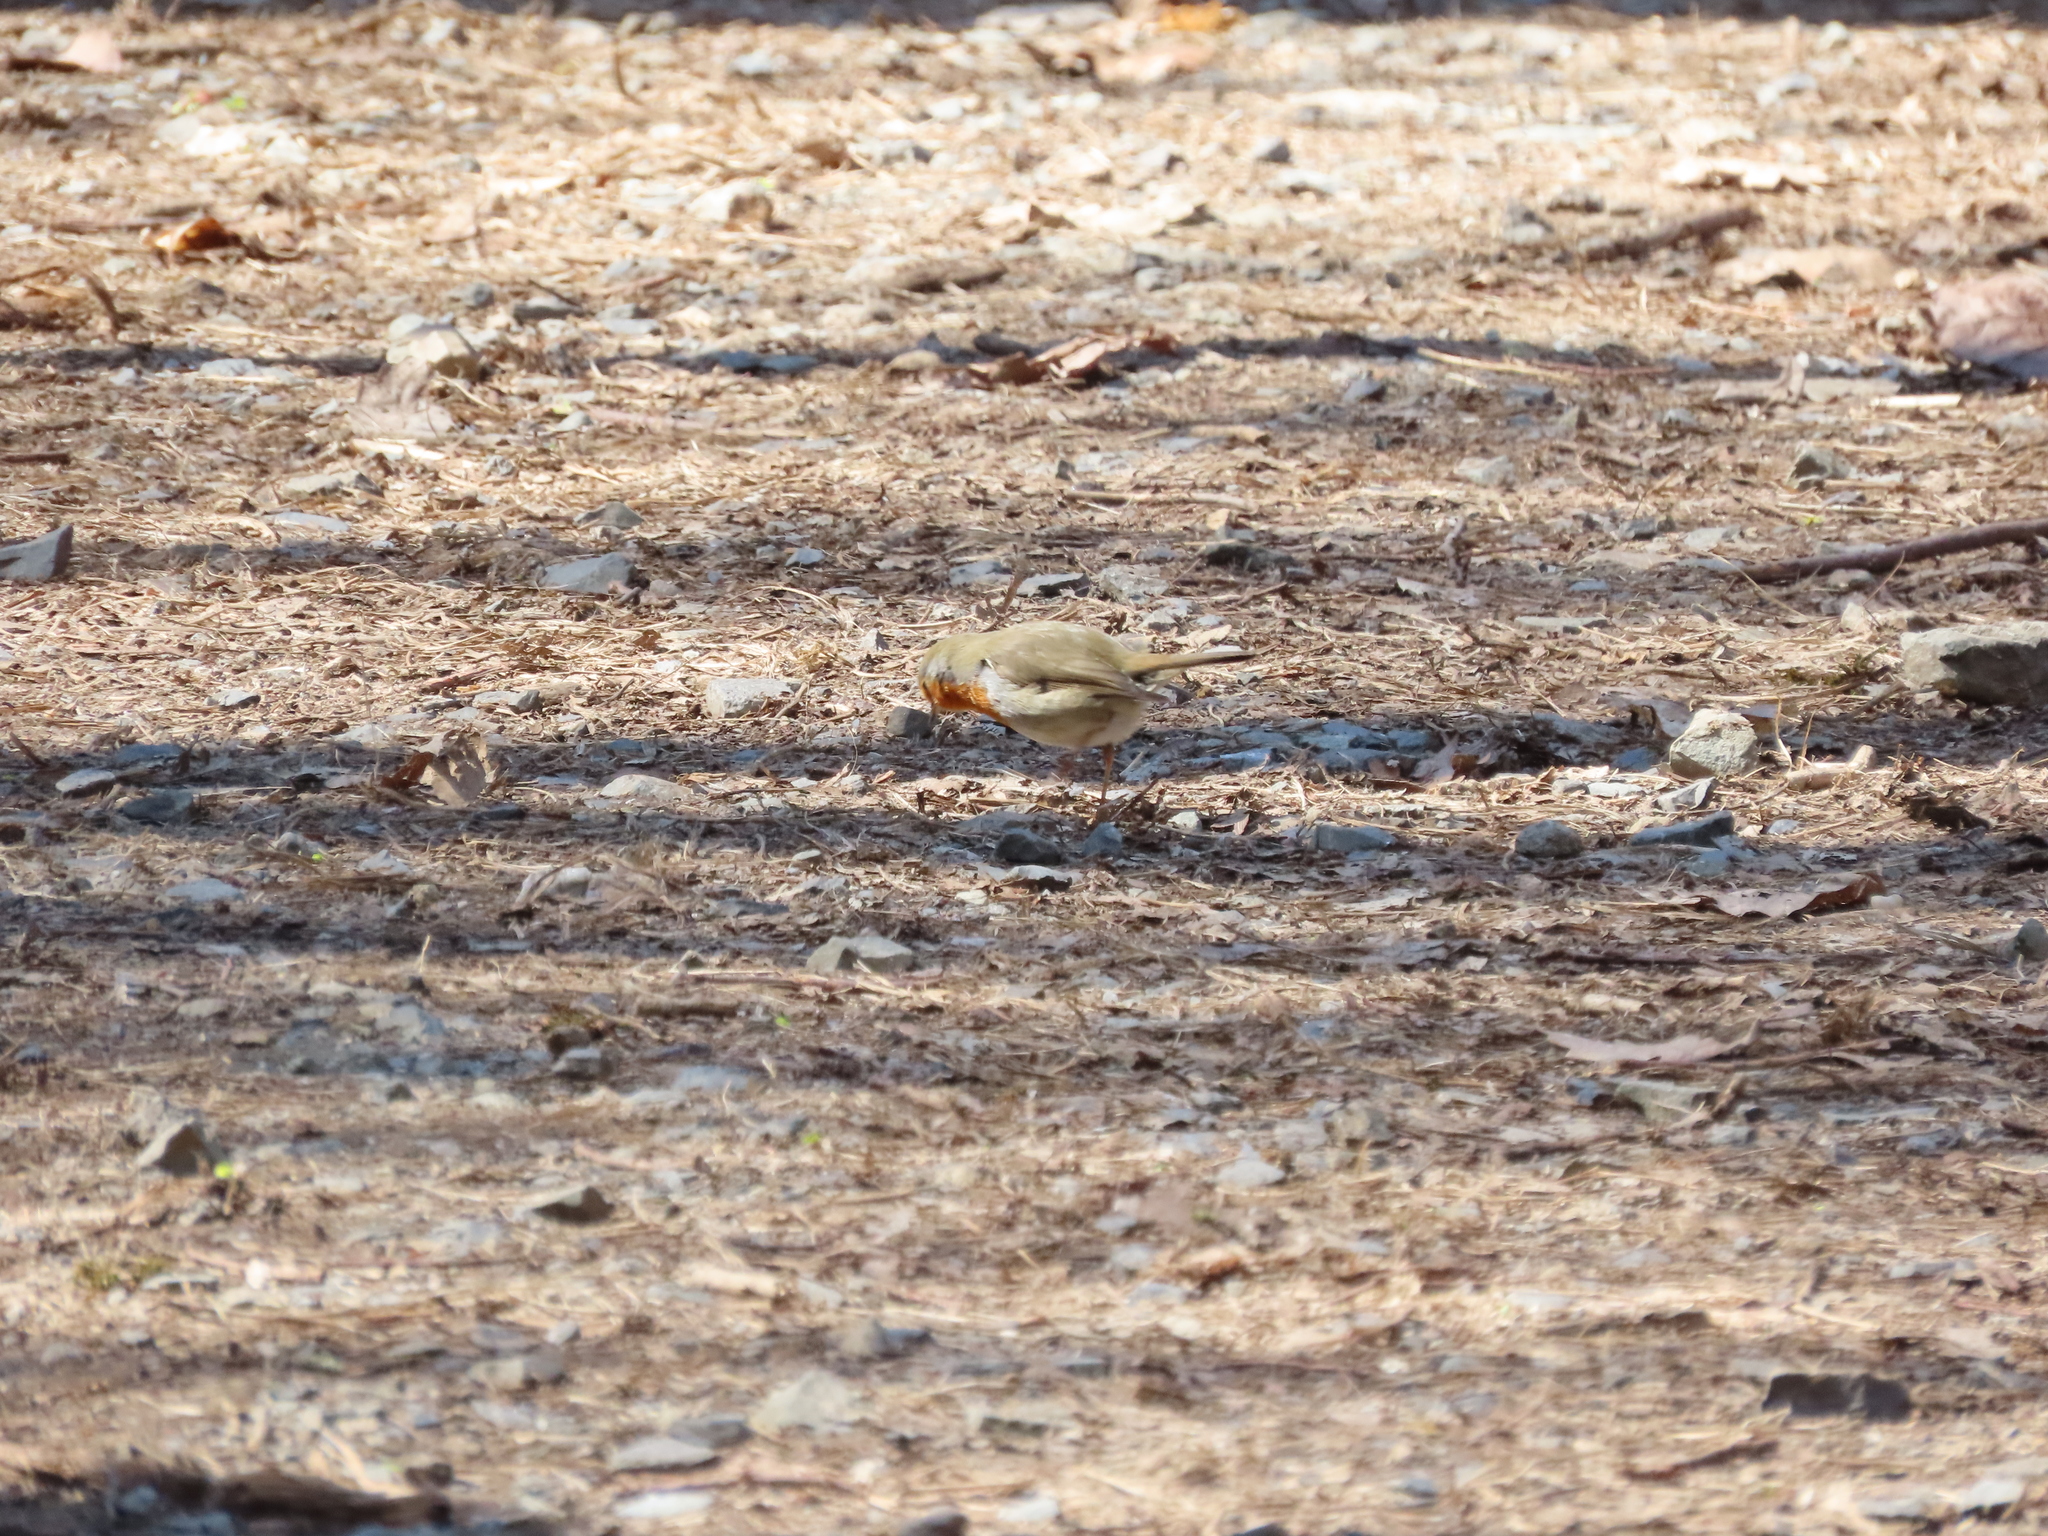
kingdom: Animalia
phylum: Chordata
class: Aves
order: Passeriformes
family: Muscicapidae
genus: Erithacus
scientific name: Erithacus rubecula
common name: European robin
